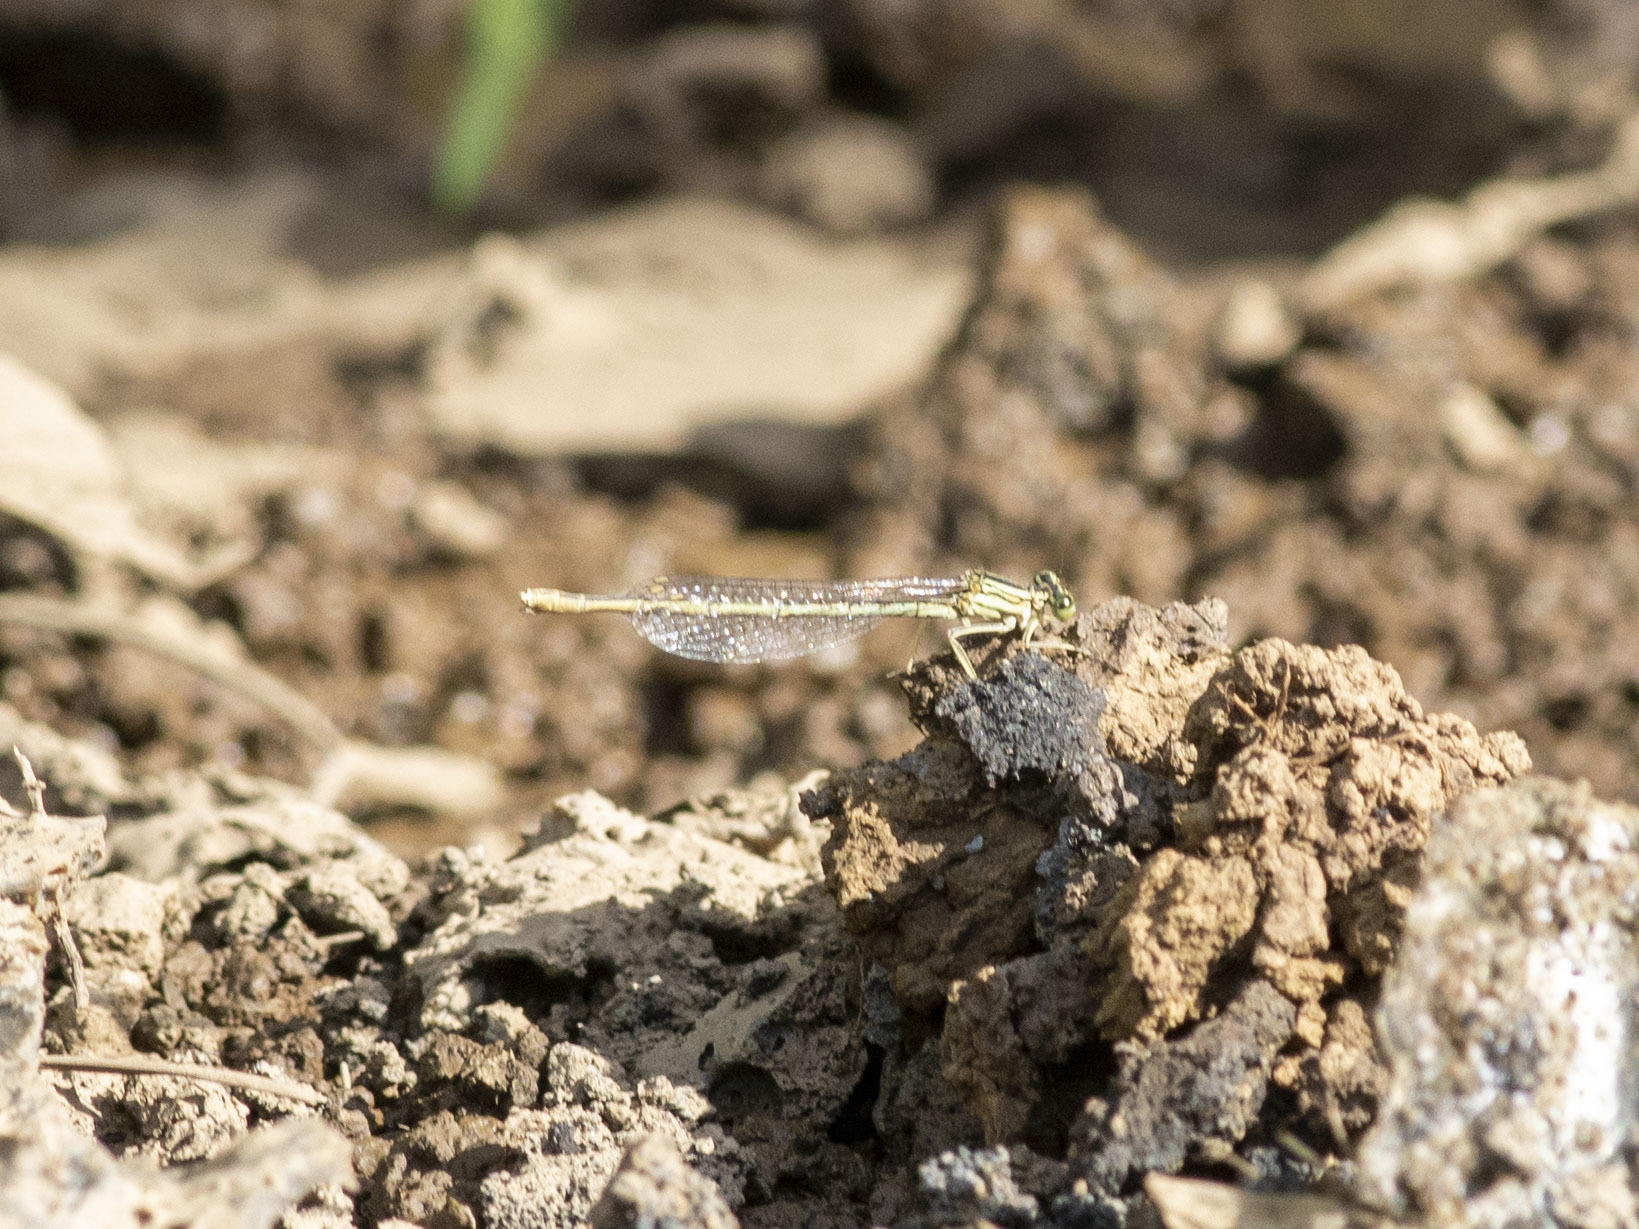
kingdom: Animalia
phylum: Arthropoda
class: Insecta
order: Odonata
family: Platycnemididae
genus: Platycnemis
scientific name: Platycnemis pennipes
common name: White-legged damselfly
